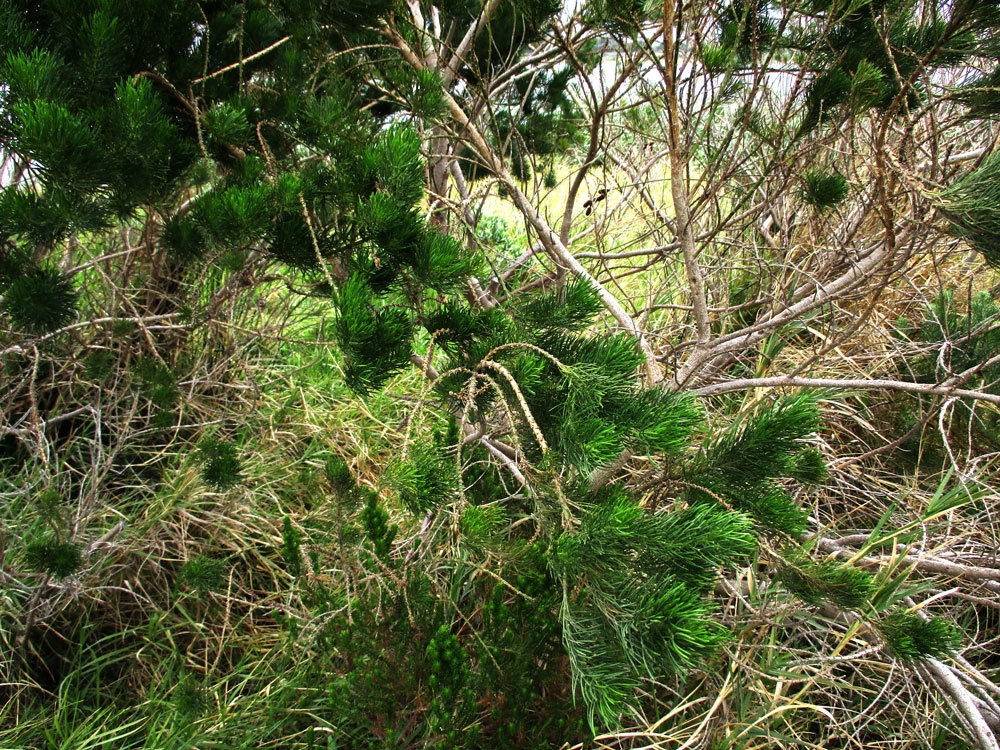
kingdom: Plantae
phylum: Tracheophyta
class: Magnoliopsida
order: Fabales
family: Fabaceae
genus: Psoralea
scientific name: Psoralea pinnata
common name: African scurfpea
